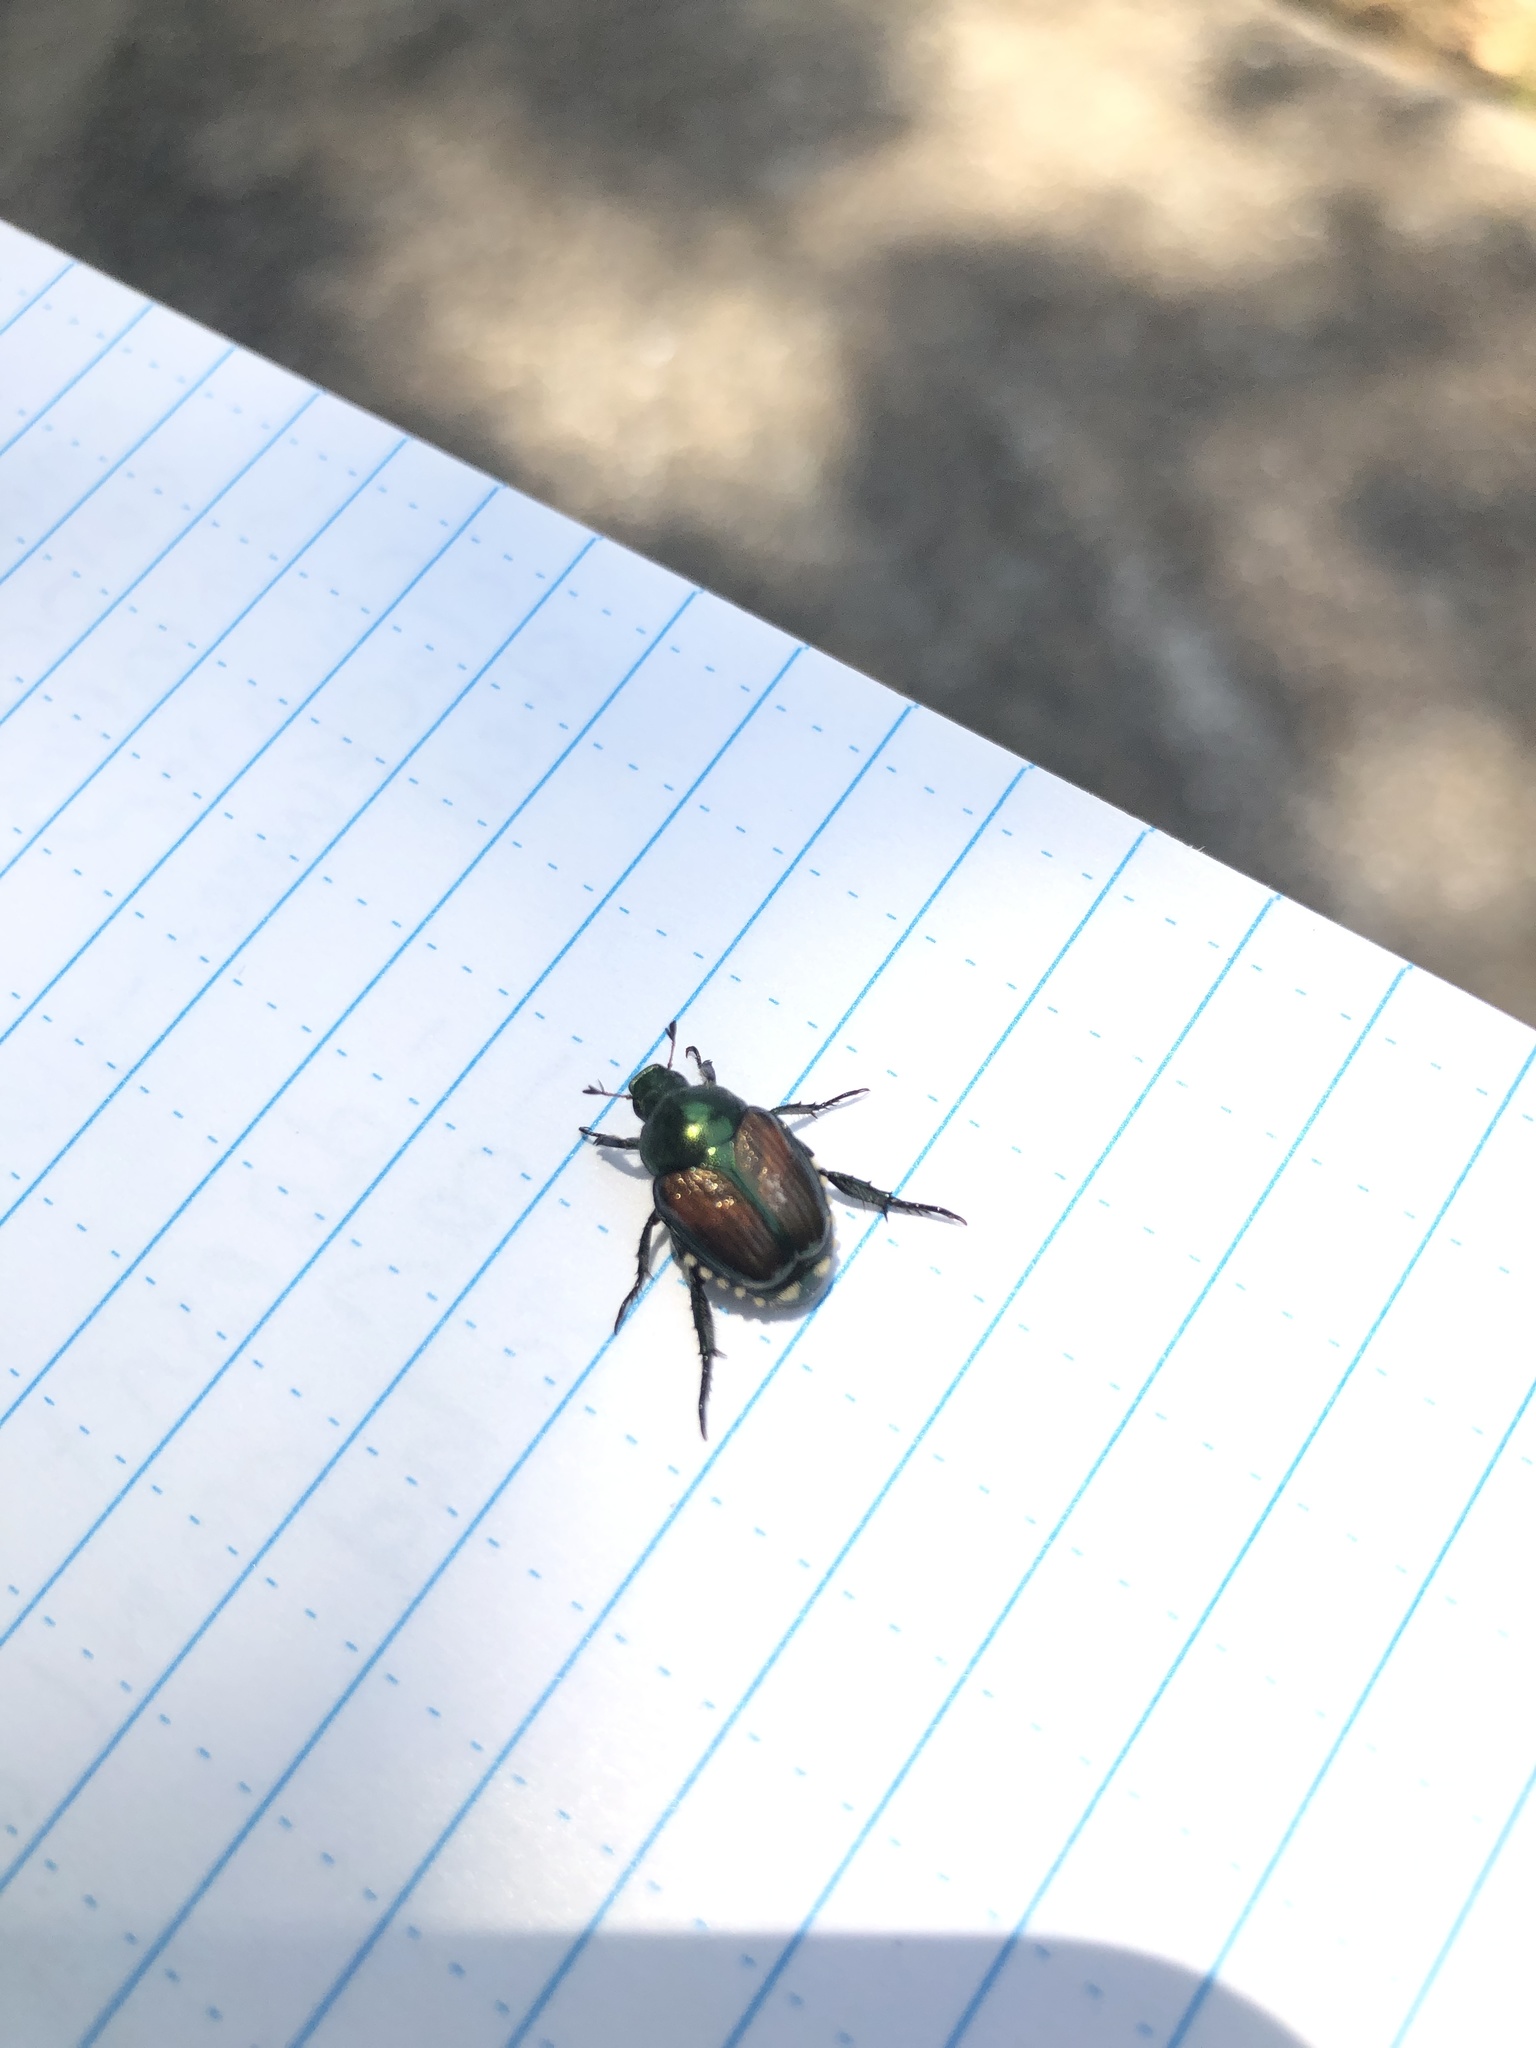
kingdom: Animalia
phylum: Arthropoda
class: Insecta
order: Coleoptera
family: Scarabaeidae
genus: Popillia
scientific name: Popillia japonica
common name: Japanese beetle
